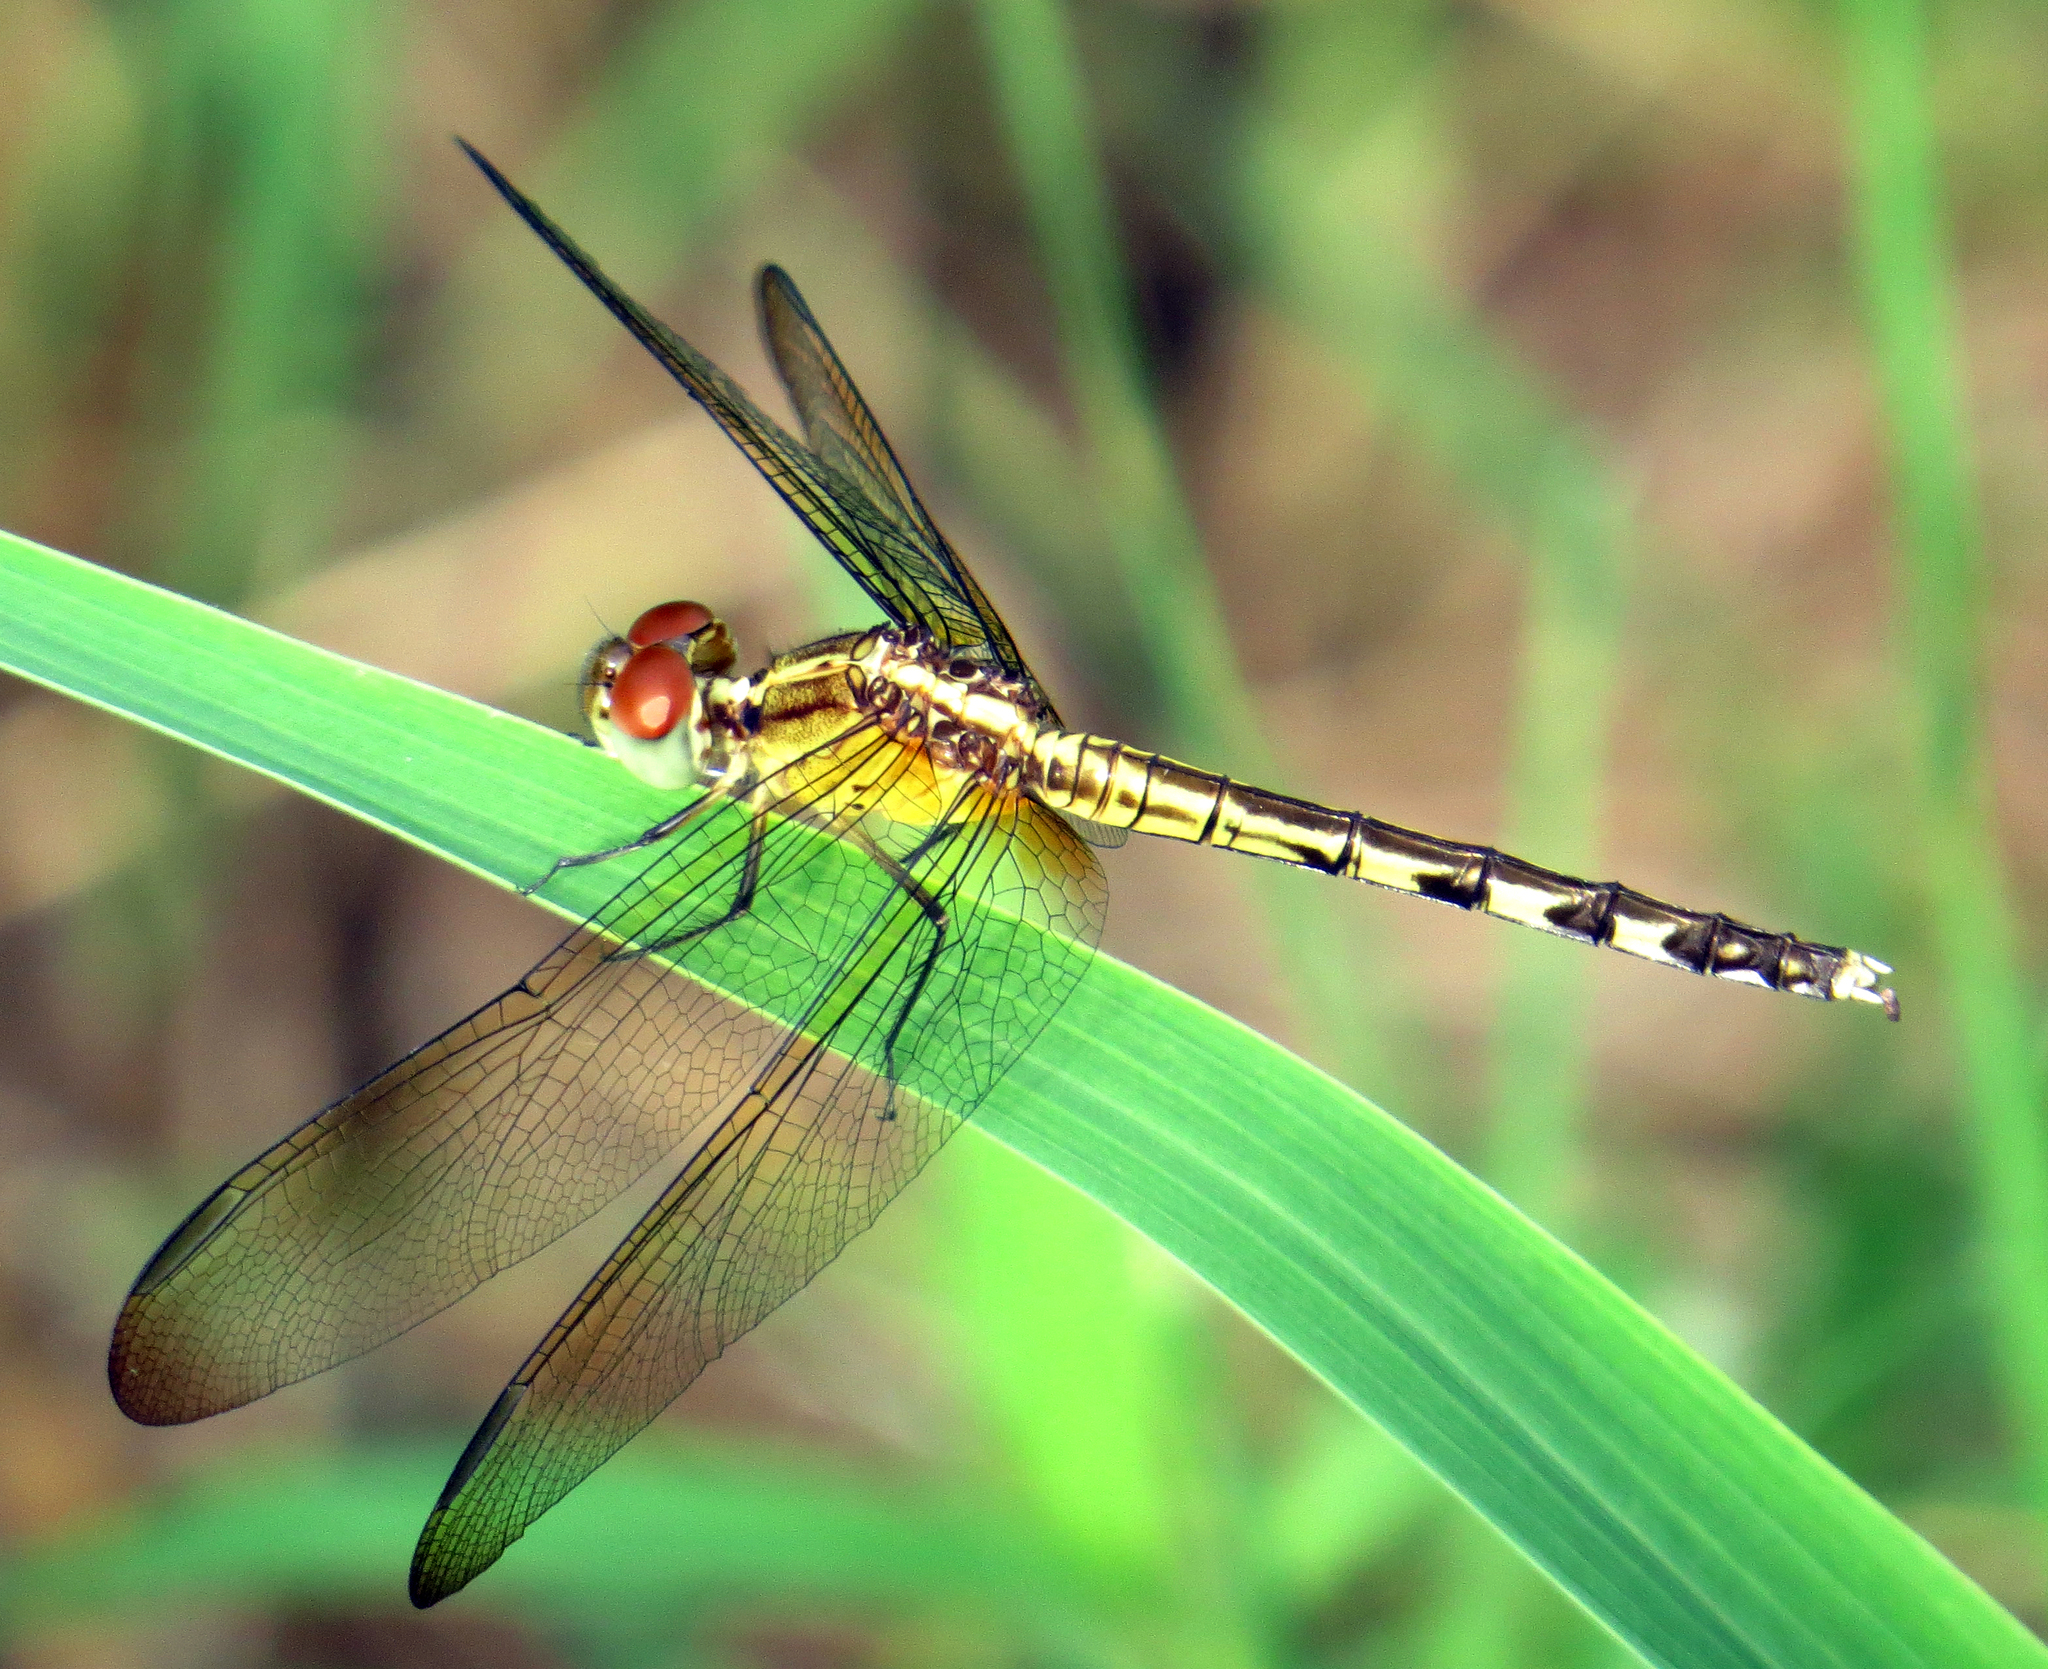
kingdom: Animalia
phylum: Arthropoda
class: Insecta
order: Odonata
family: Libellulidae
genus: Erythrodiplax
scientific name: Erythrodiplax umbrata
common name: Band-winged dragonlet
